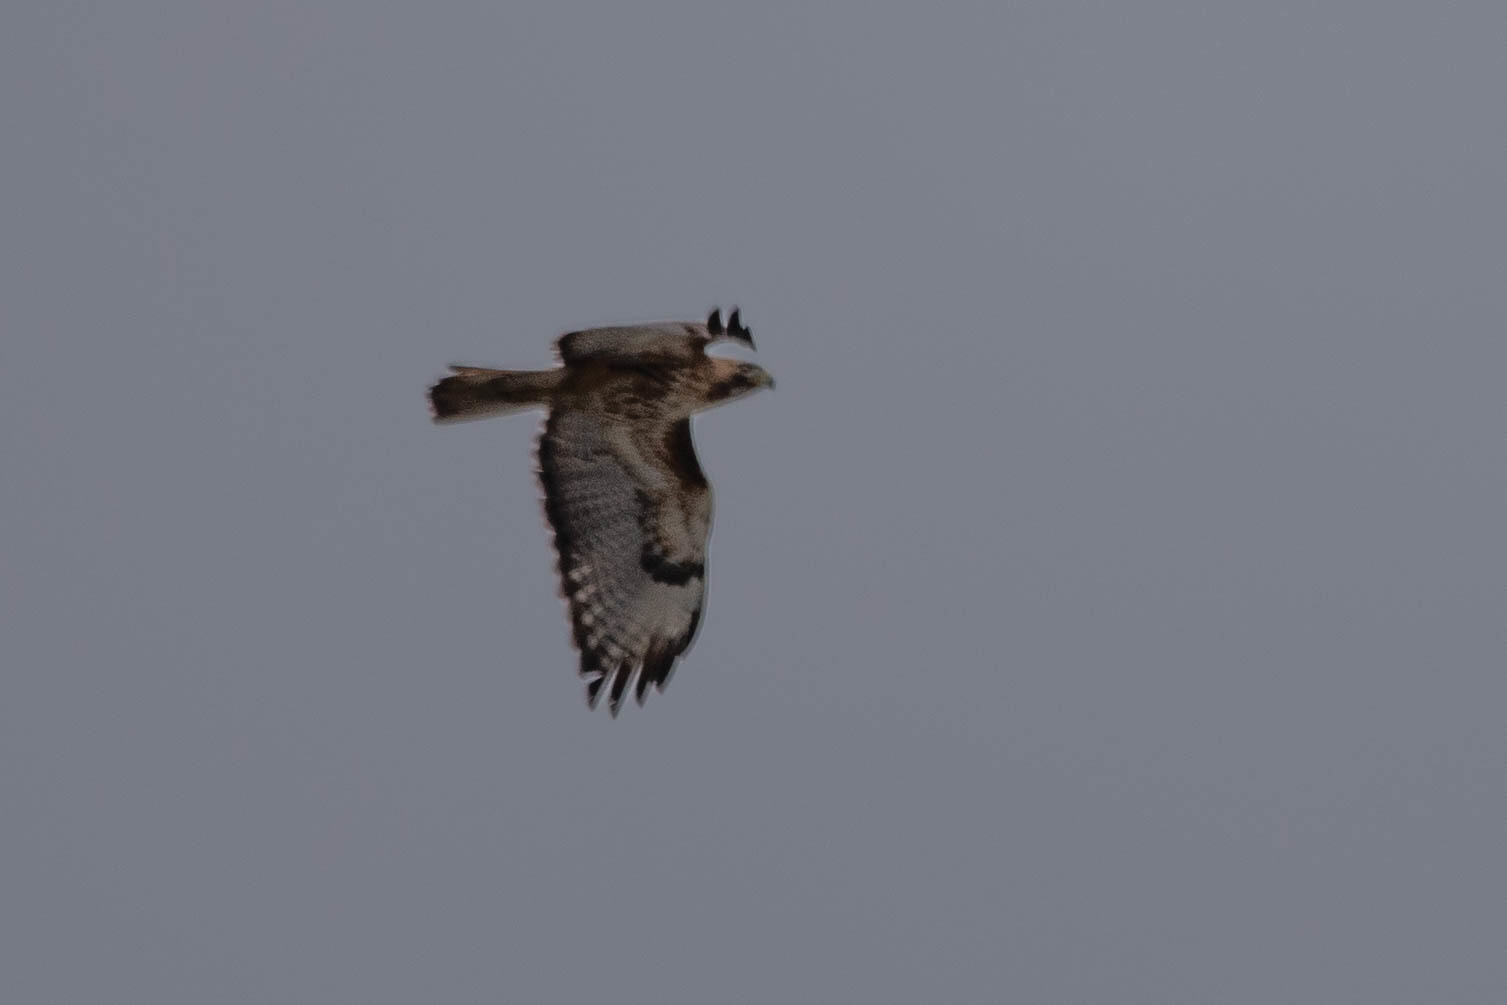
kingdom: Animalia
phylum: Chordata
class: Aves
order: Accipitriformes
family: Accipitridae
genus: Buteo
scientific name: Buteo jamaicensis
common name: Red-tailed hawk
